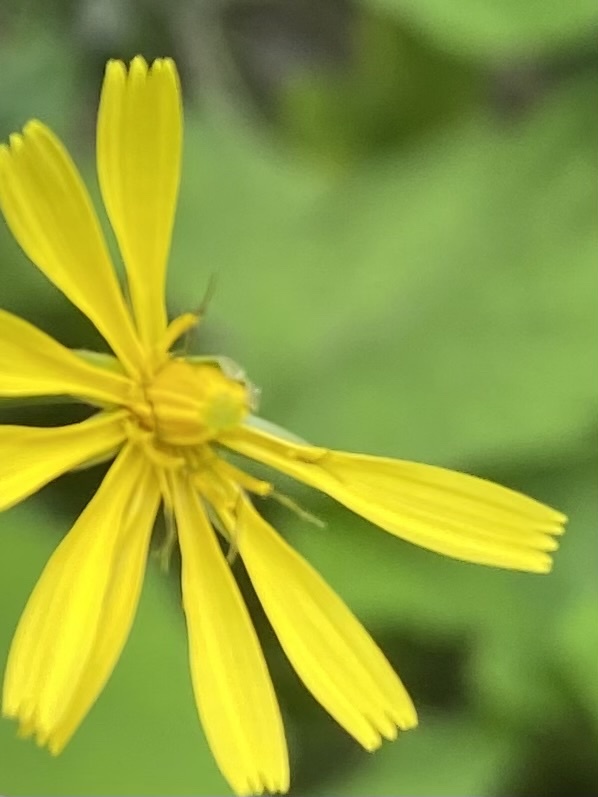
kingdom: Plantae
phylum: Tracheophyta
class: Magnoliopsida
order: Asterales
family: Asteraceae
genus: Lapsana
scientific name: Lapsana communis
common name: Nipplewort
